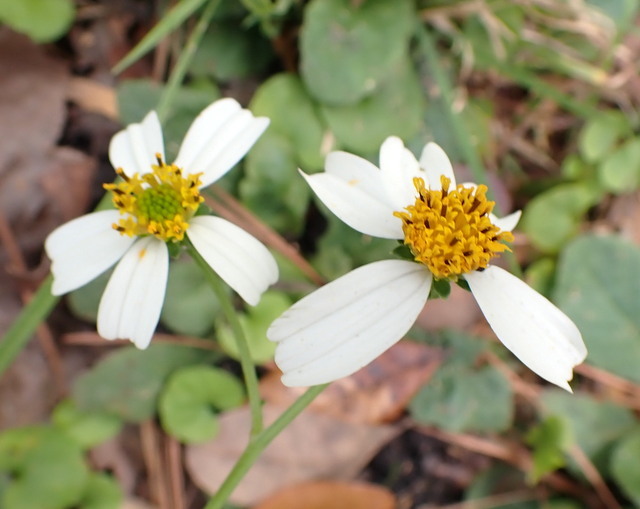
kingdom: Plantae
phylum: Tracheophyta
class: Magnoliopsida
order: Asterales
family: Asteraceae
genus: Bidens
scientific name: Bidens alba
